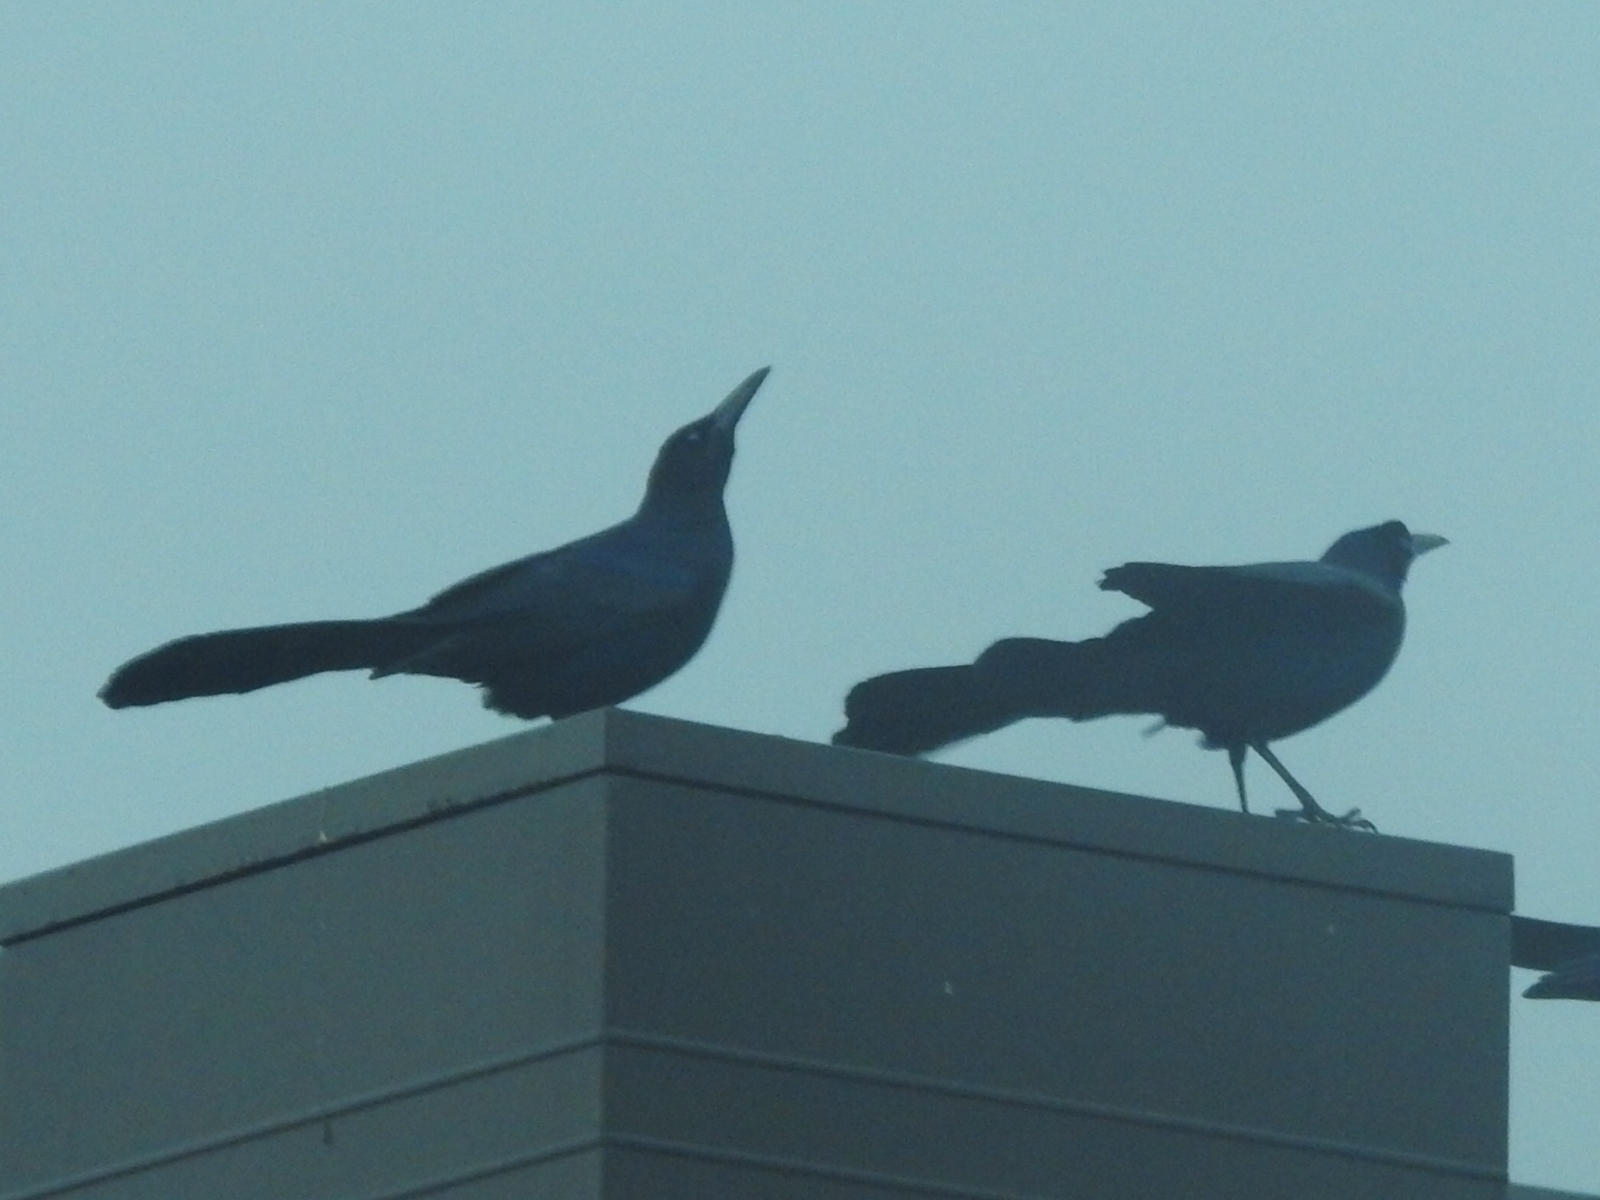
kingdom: Animalia
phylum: Chordata
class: Aves
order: Passeriformes
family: Icteridae
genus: Quiscalus
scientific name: Quiscalus mexicanus
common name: Great-tailed grackle
